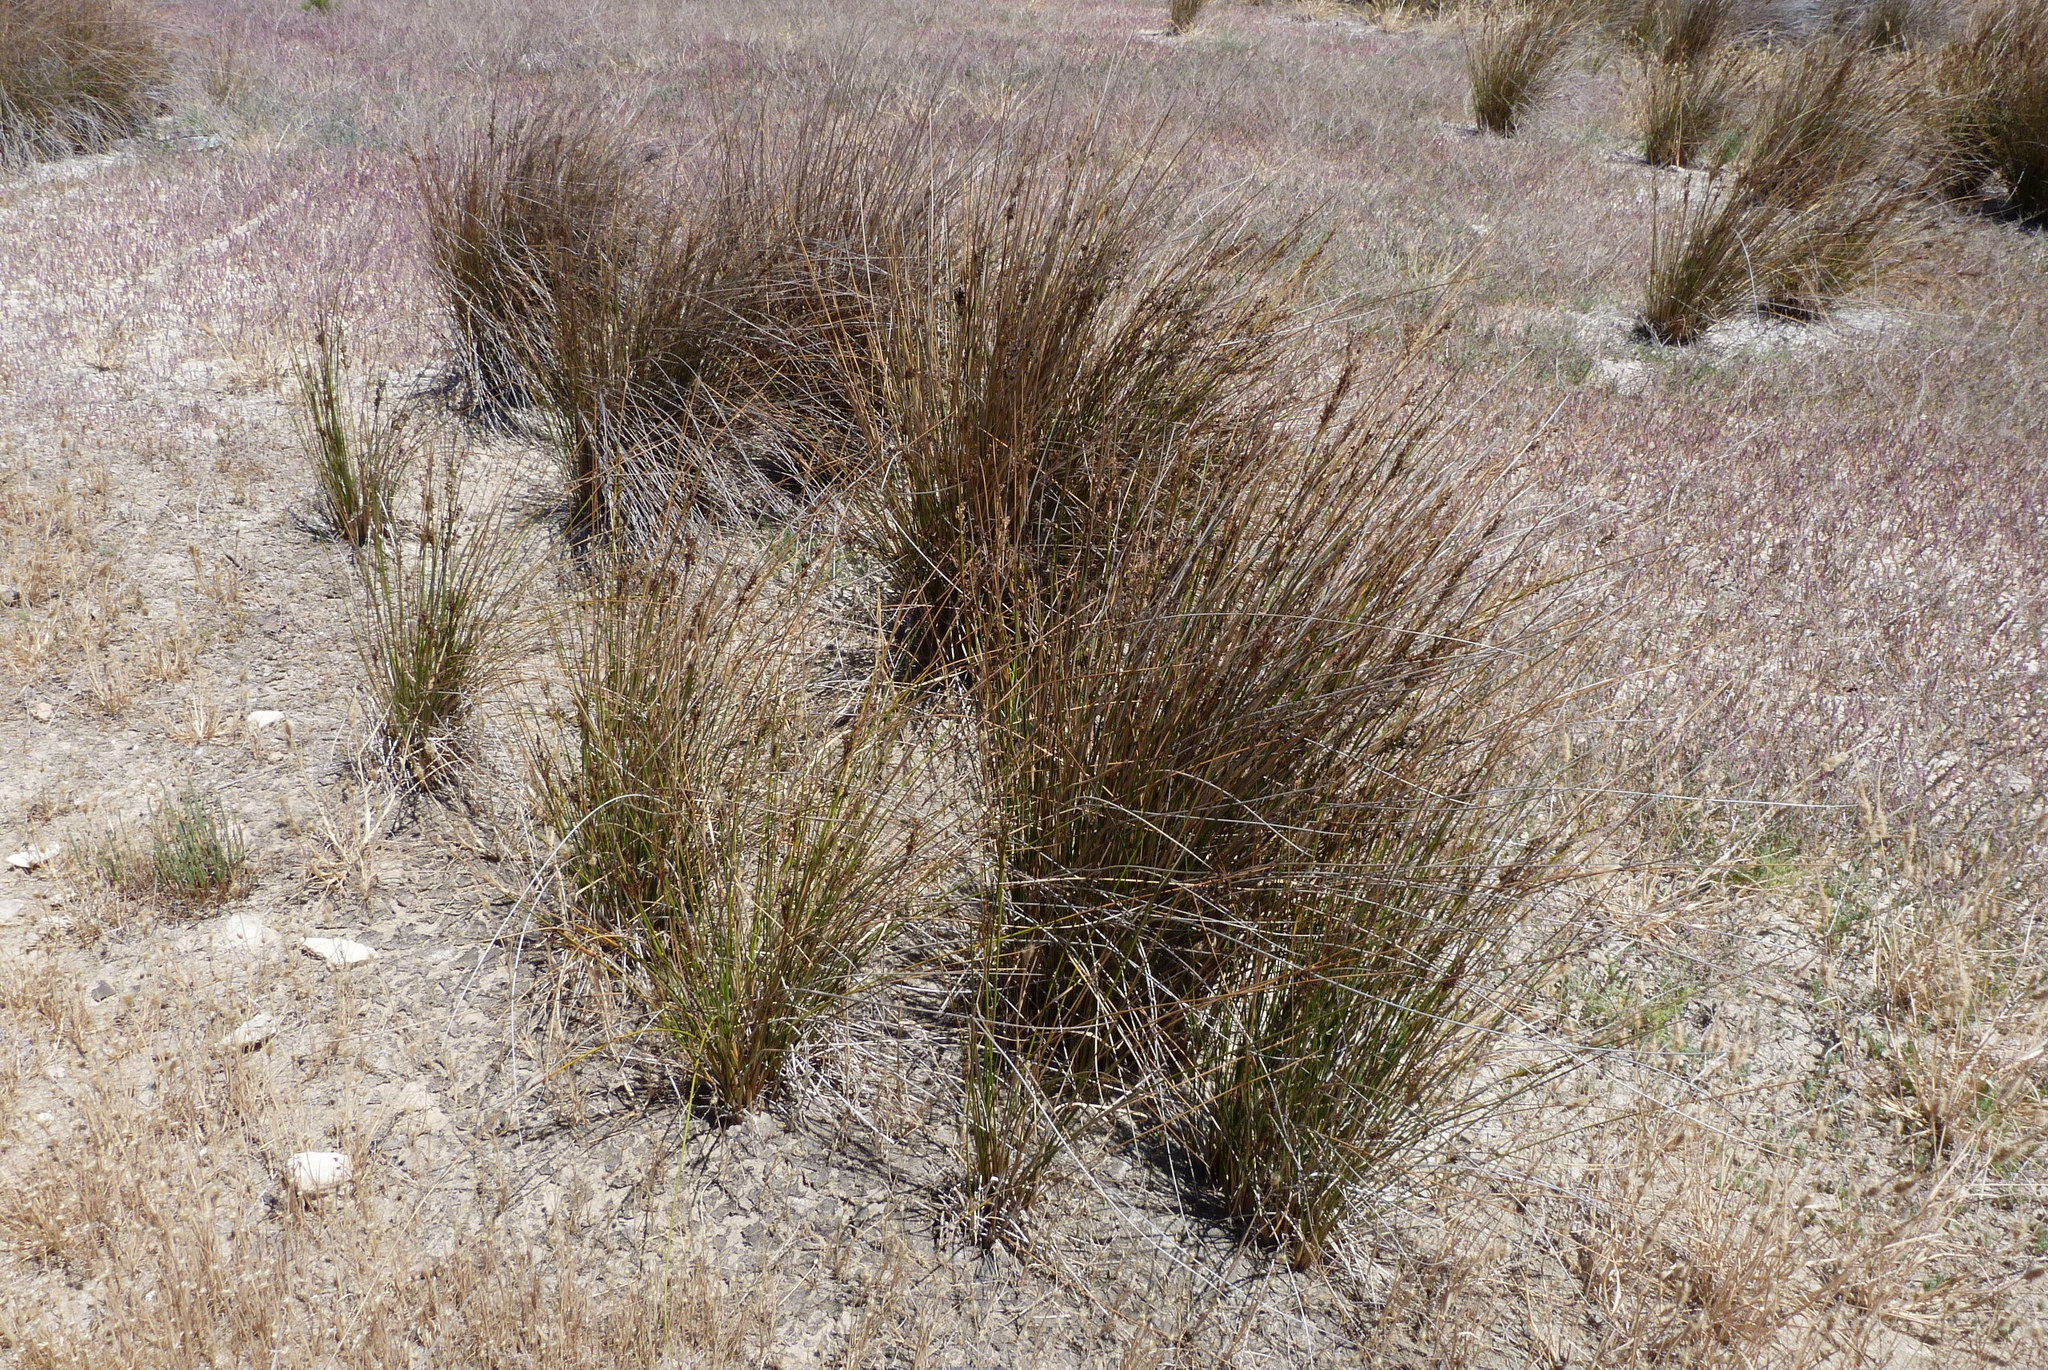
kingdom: Plantae
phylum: Tracheophyta
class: Liliopsida
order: Poales
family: Juncaceae
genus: Juncus
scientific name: Juncus kraussii
